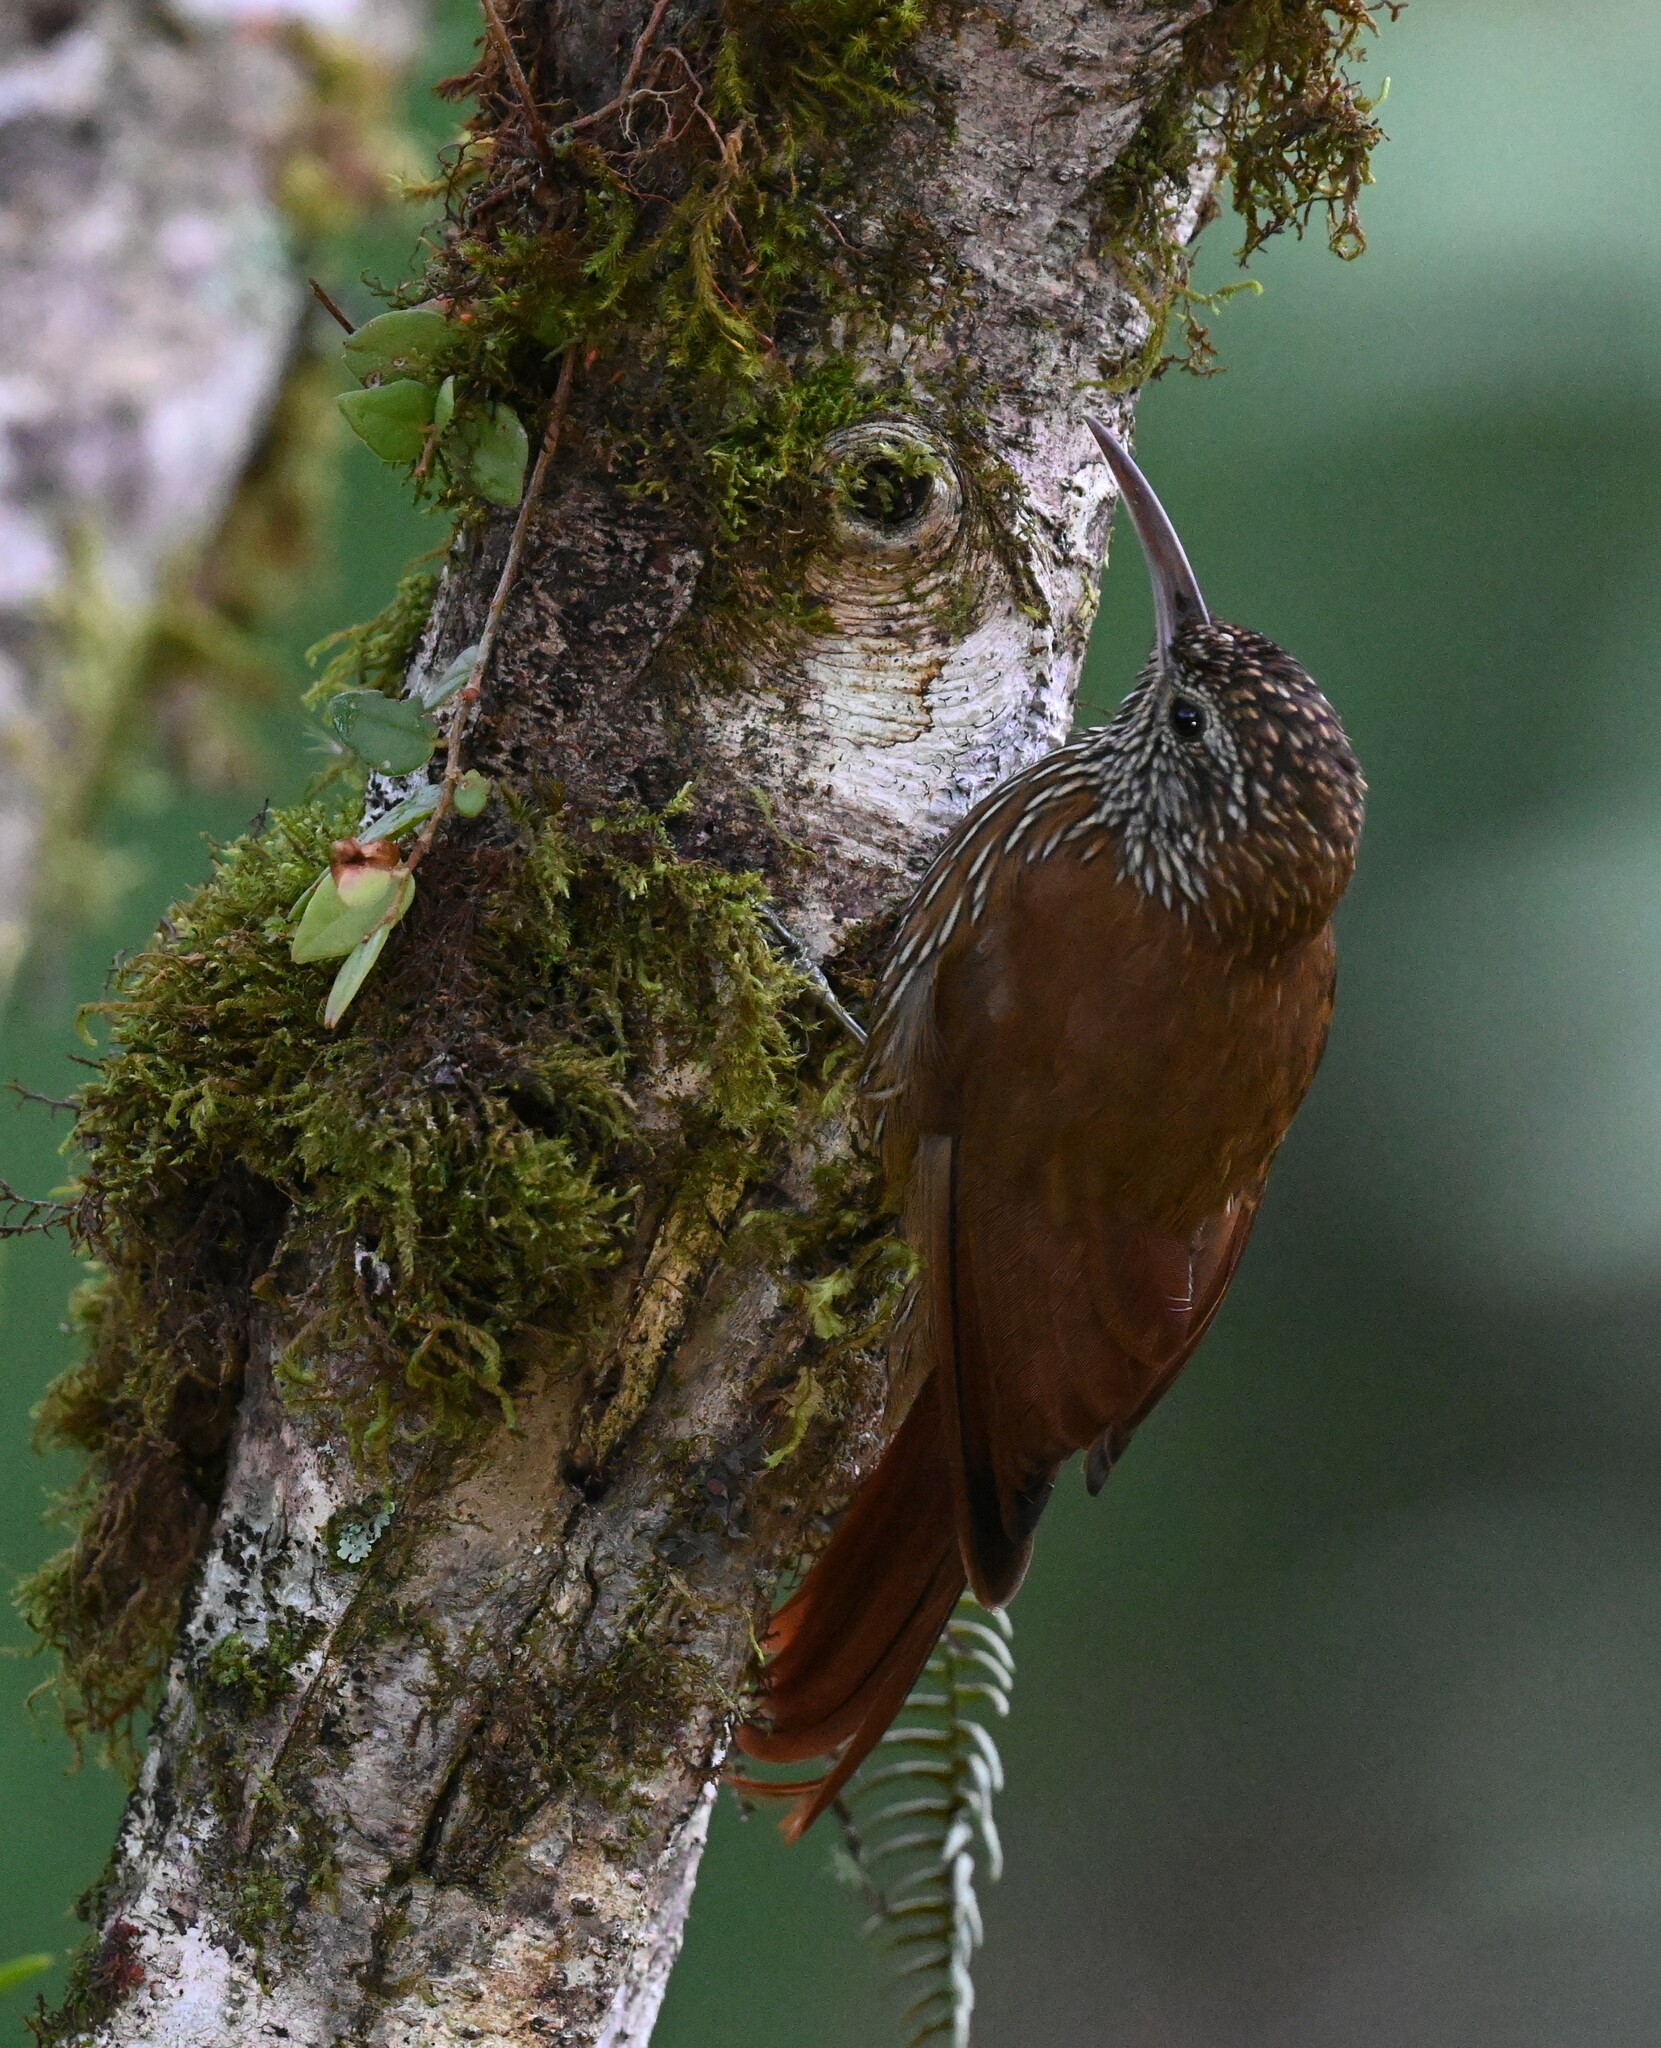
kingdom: Animalia
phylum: Chordata
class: Aves
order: Passeriformes
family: Furnariidae
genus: Lepidocolaptes
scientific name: Lepidocolaptes lacrymiger
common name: Montane woodcreeper
